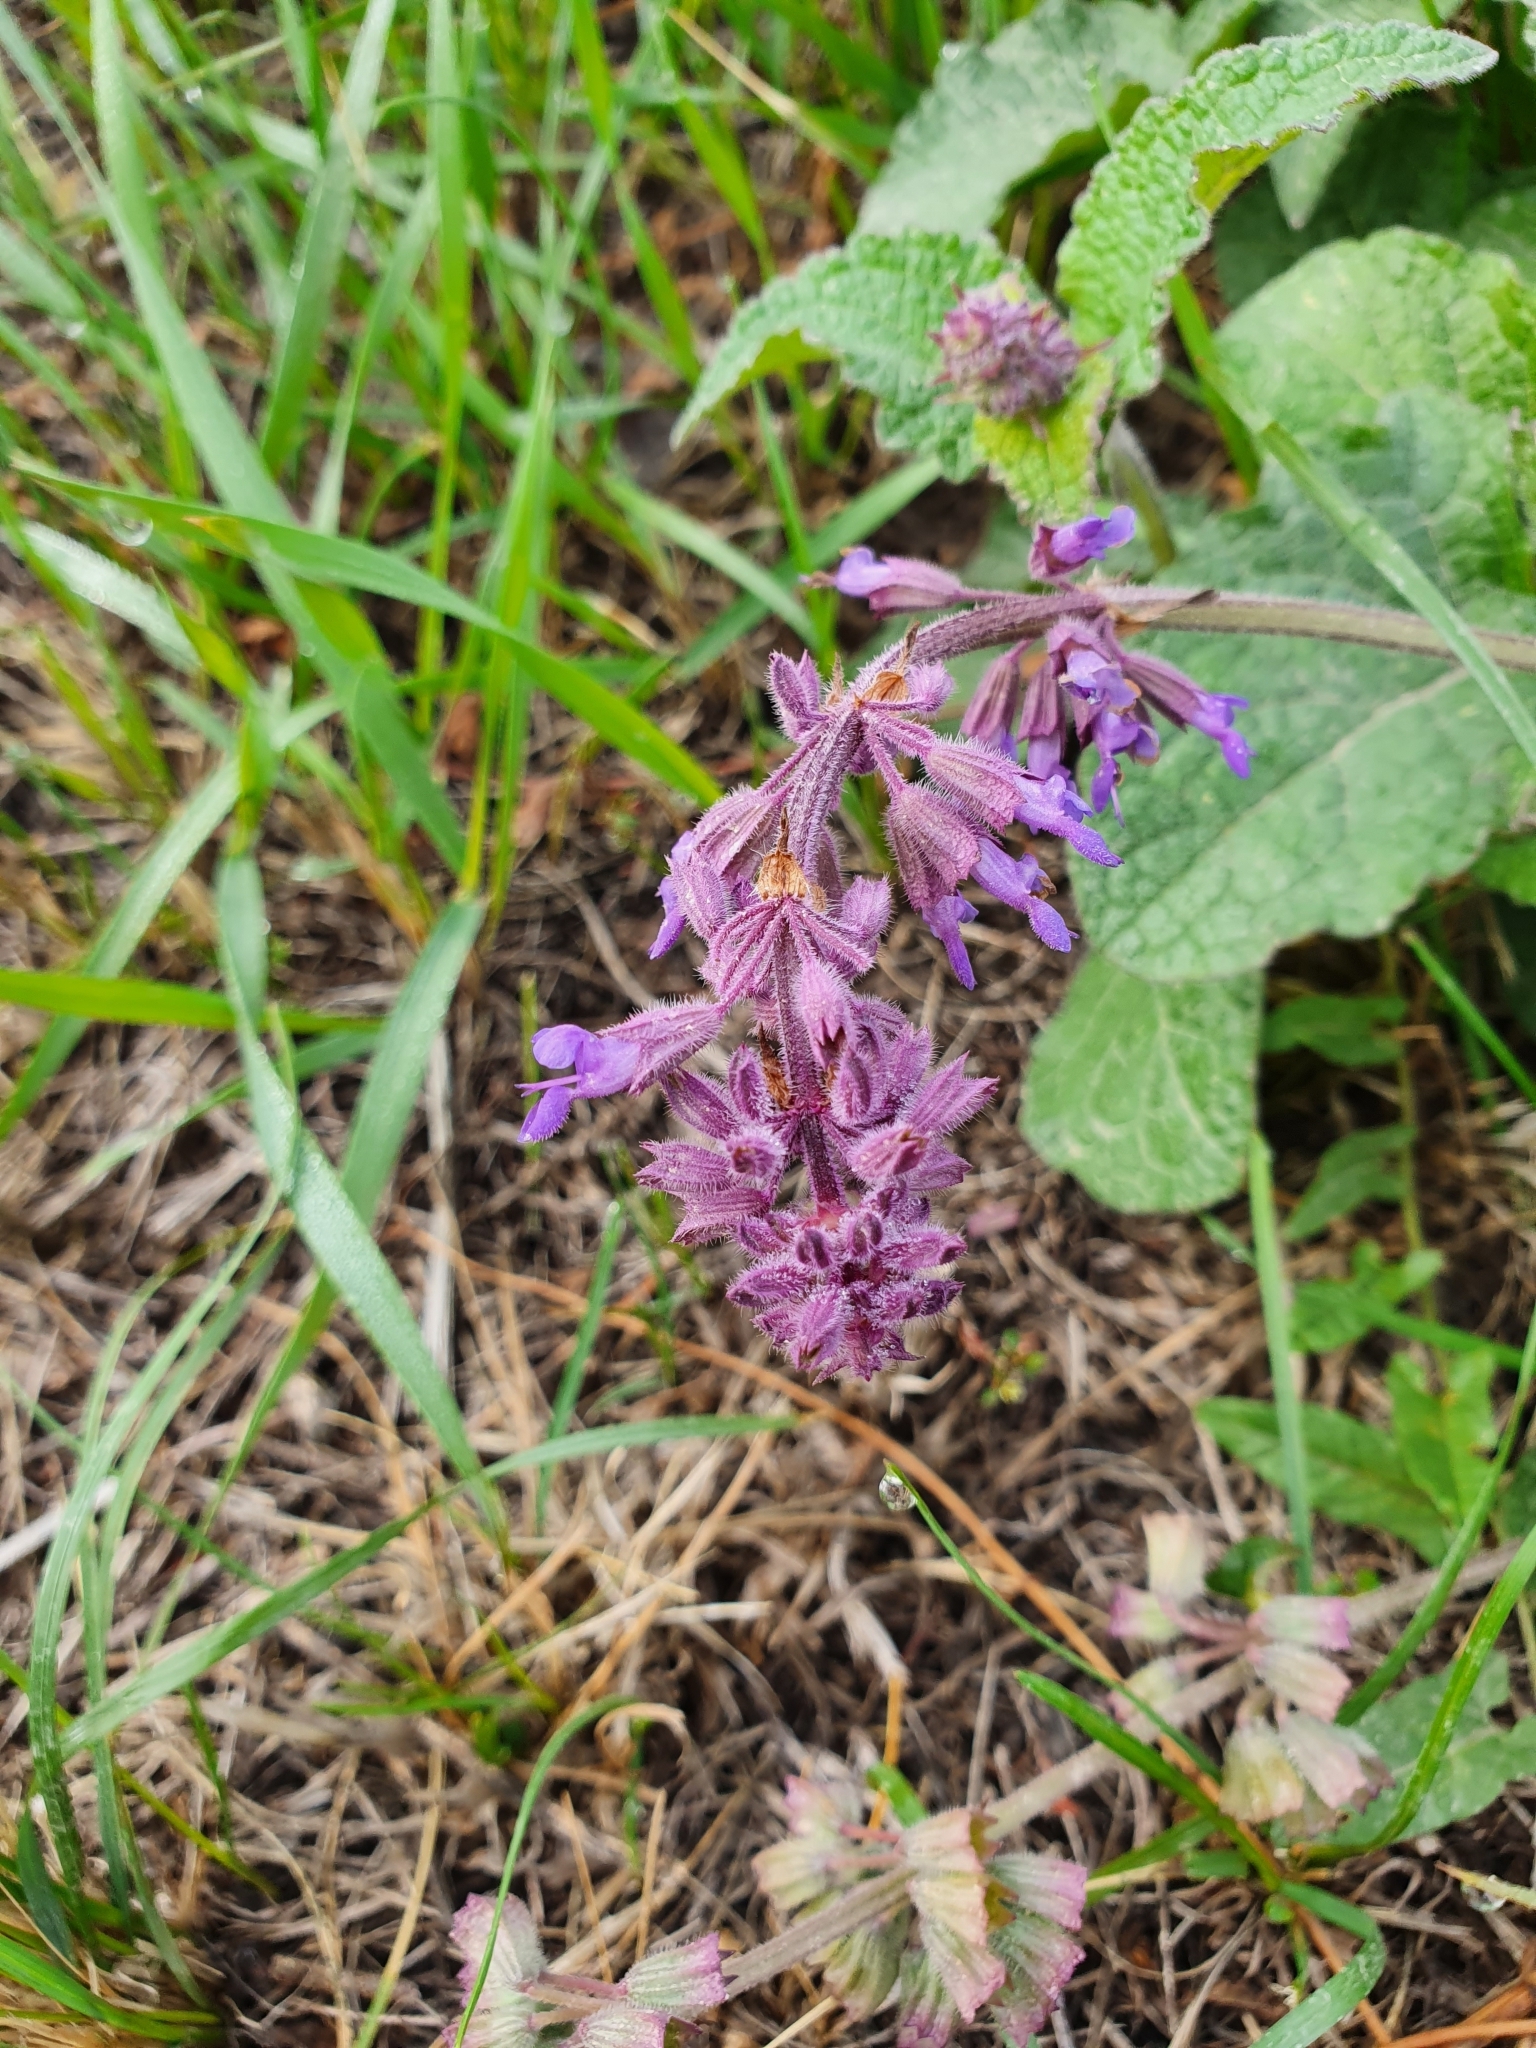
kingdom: Plantae
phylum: Tracheophyta
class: Magnoliopsida
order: Lamiales
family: Lamiaceae
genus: Salvia
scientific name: Salvia verticillata
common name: Whorled clary
